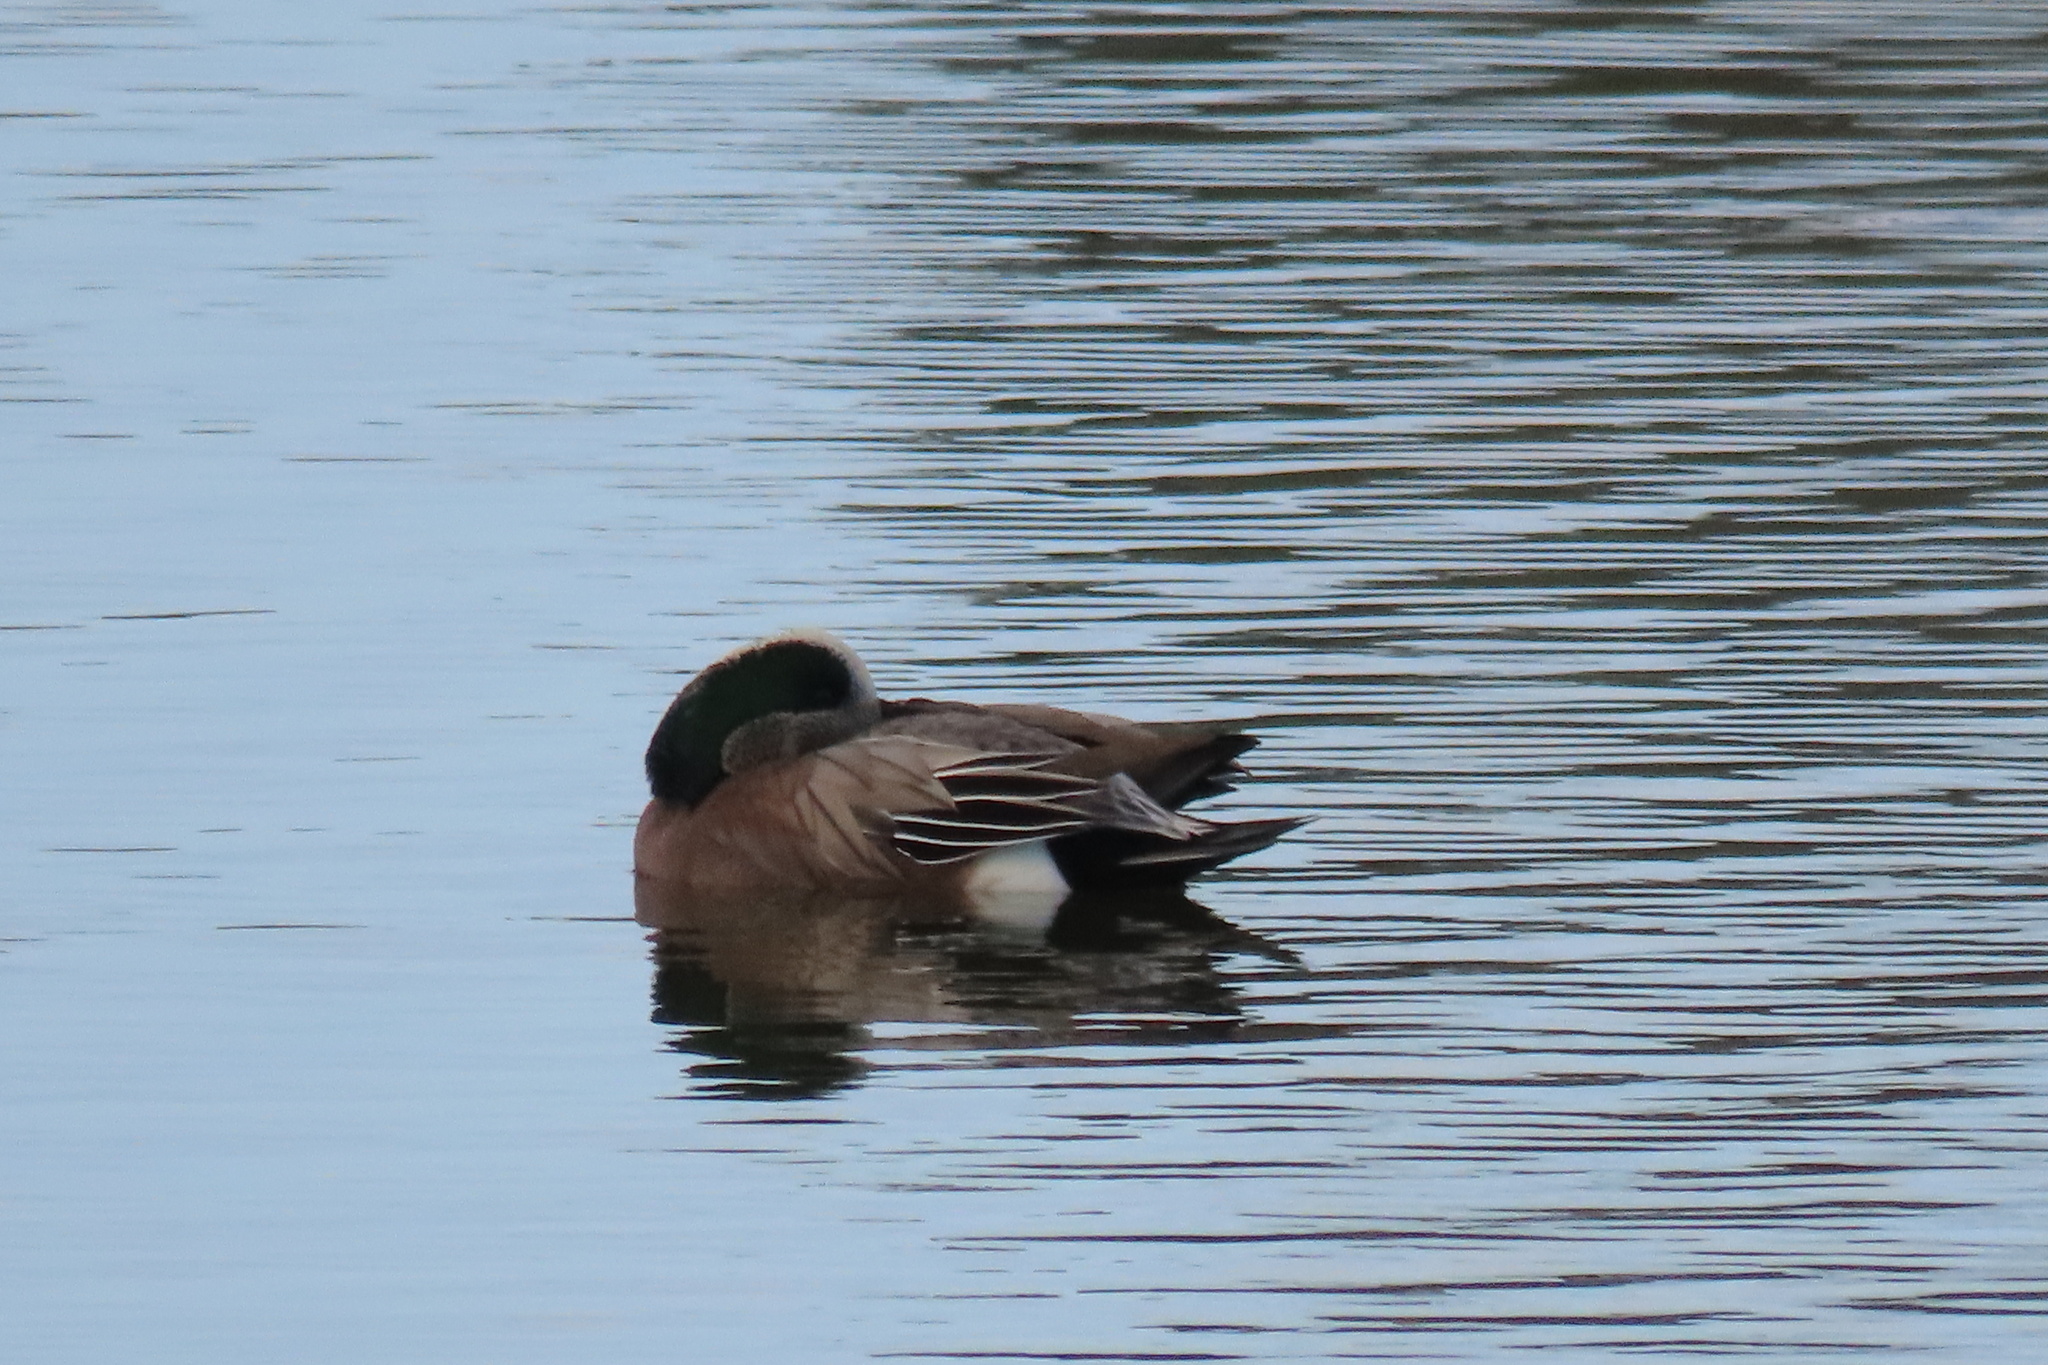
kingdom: Animalia
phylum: Chordata
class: Aves
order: Anseriformes
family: Anatidae
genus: Mareca
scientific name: Mareca americana
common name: American wigeon
